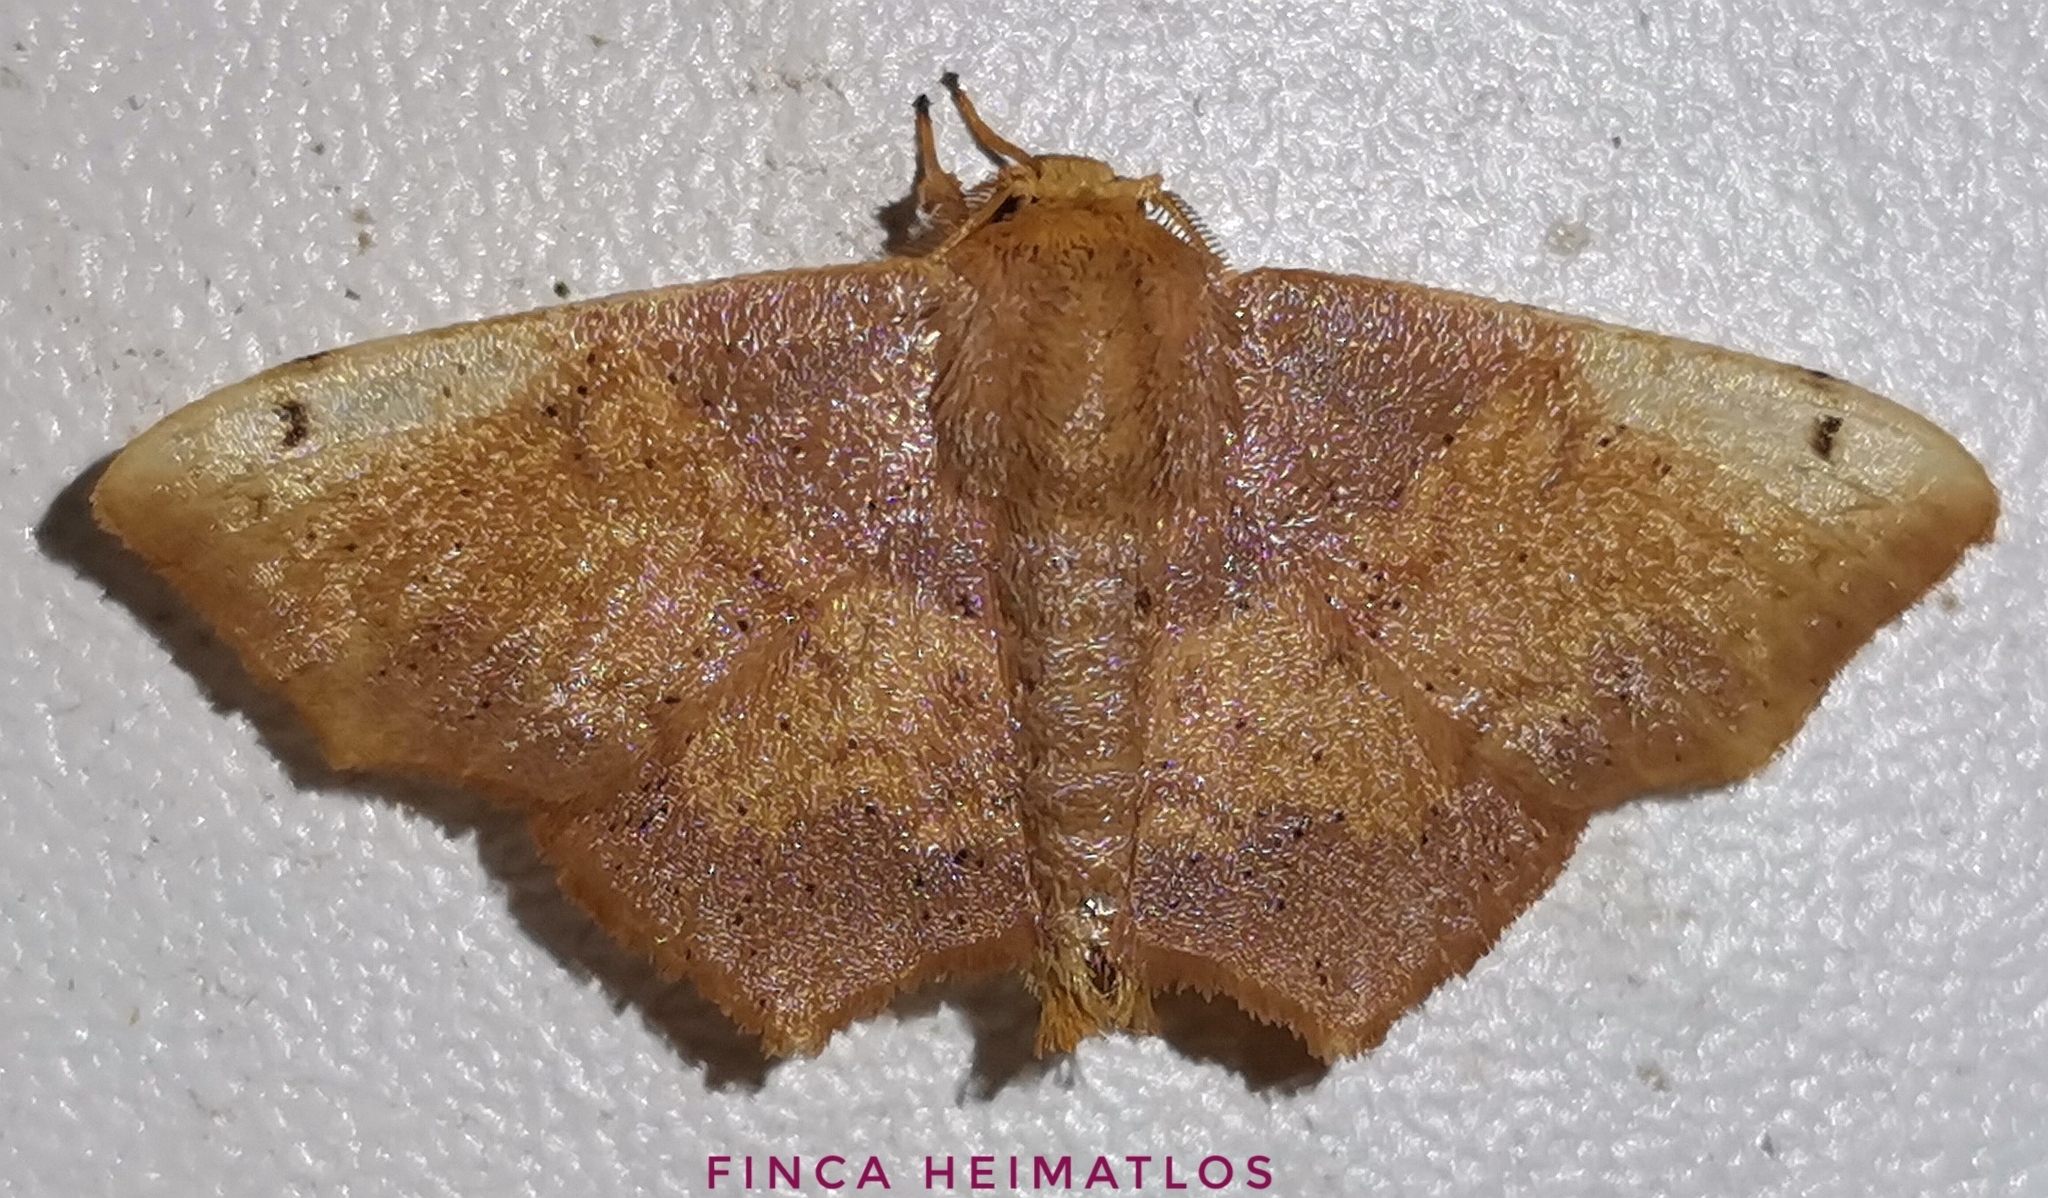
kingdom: Animalia
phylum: Arthropoda
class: Insecta
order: Lepidoptera
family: Mimallonidae
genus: Zaphanta
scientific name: Zaphanta rawlinsi
